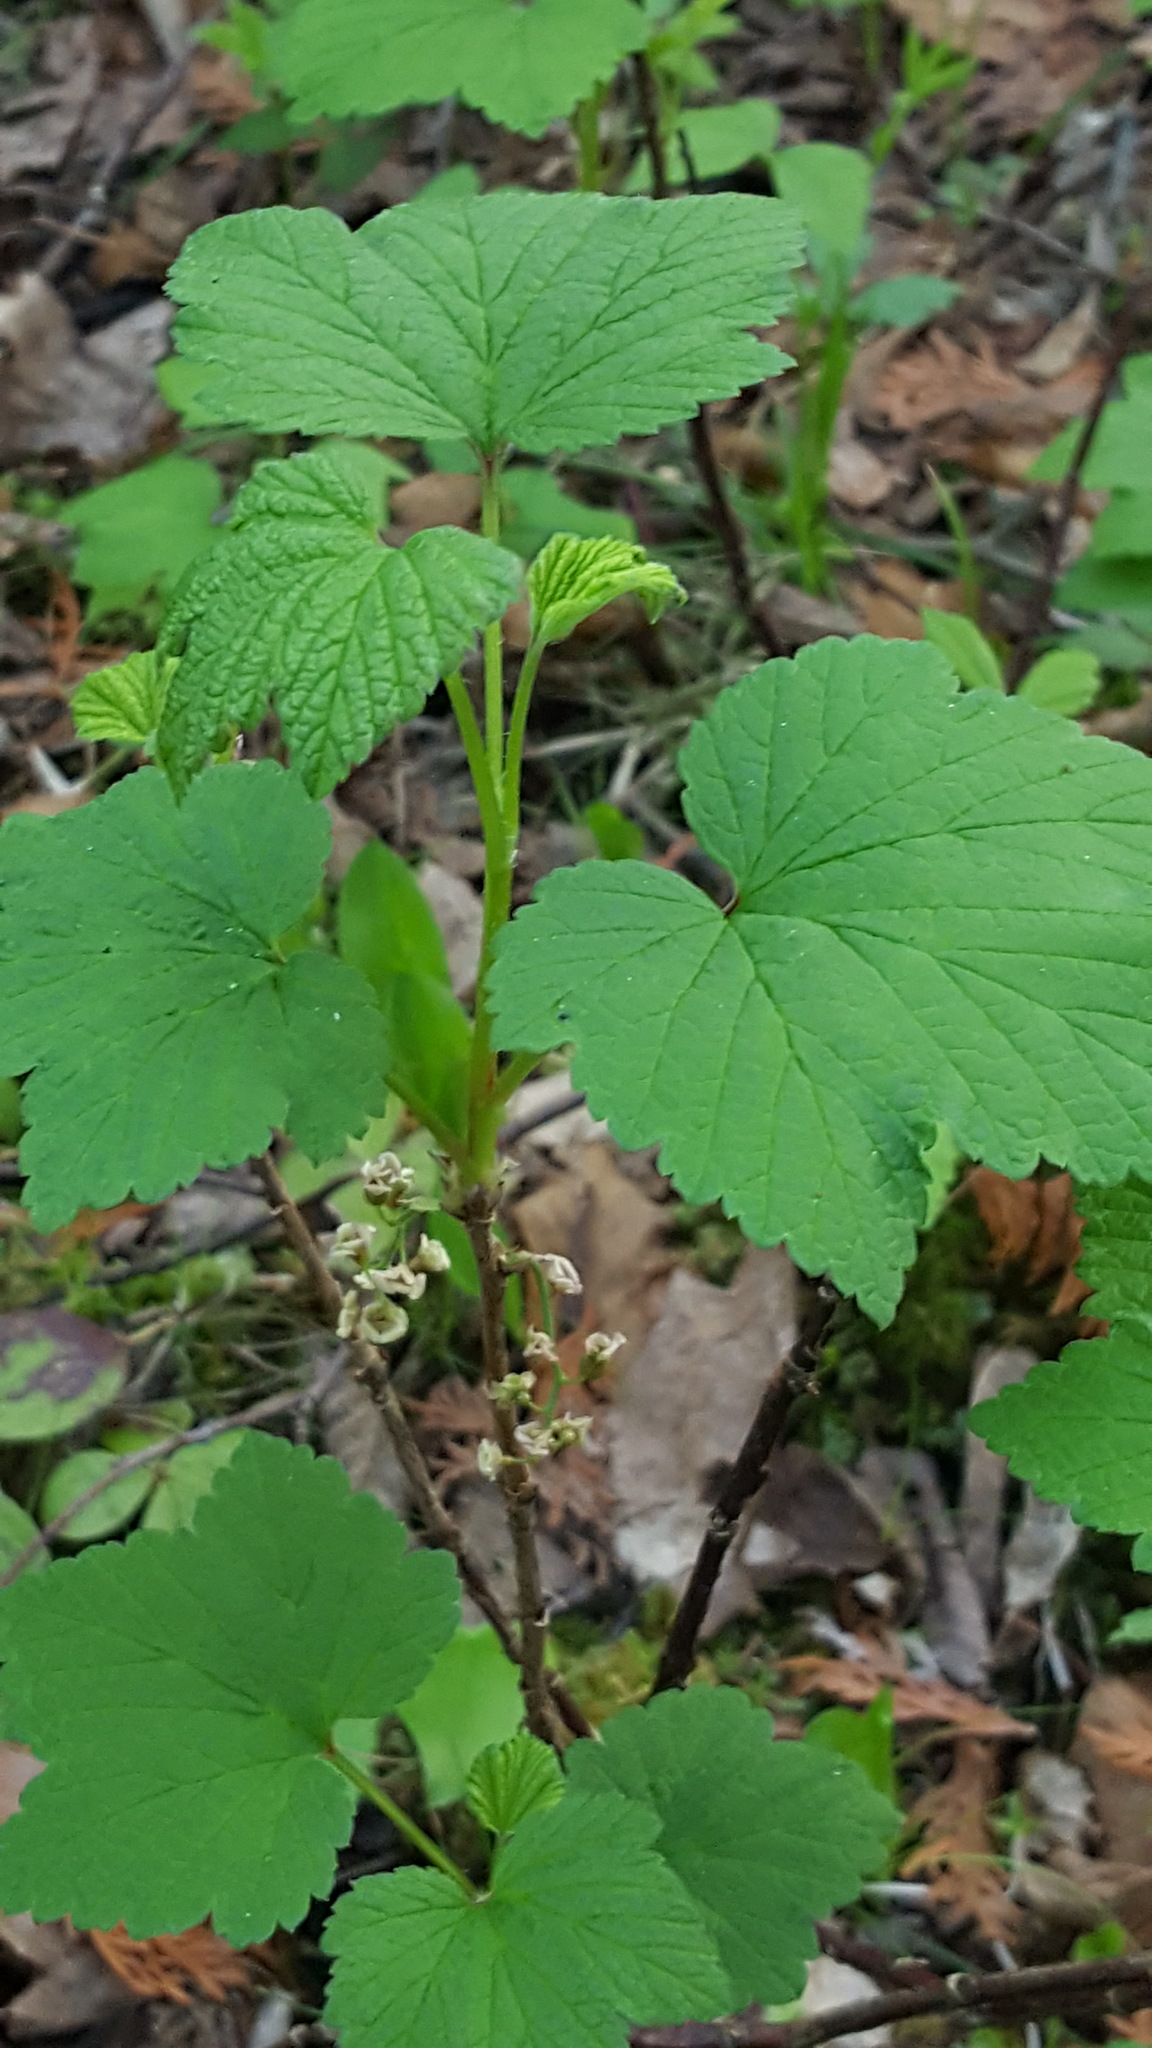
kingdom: Plantae
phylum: Tracheophyta
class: Magnoliopsida
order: Saxifragales
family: Grossulariaceae
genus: Ribes
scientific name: Ribes triste
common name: Swamp red currant
